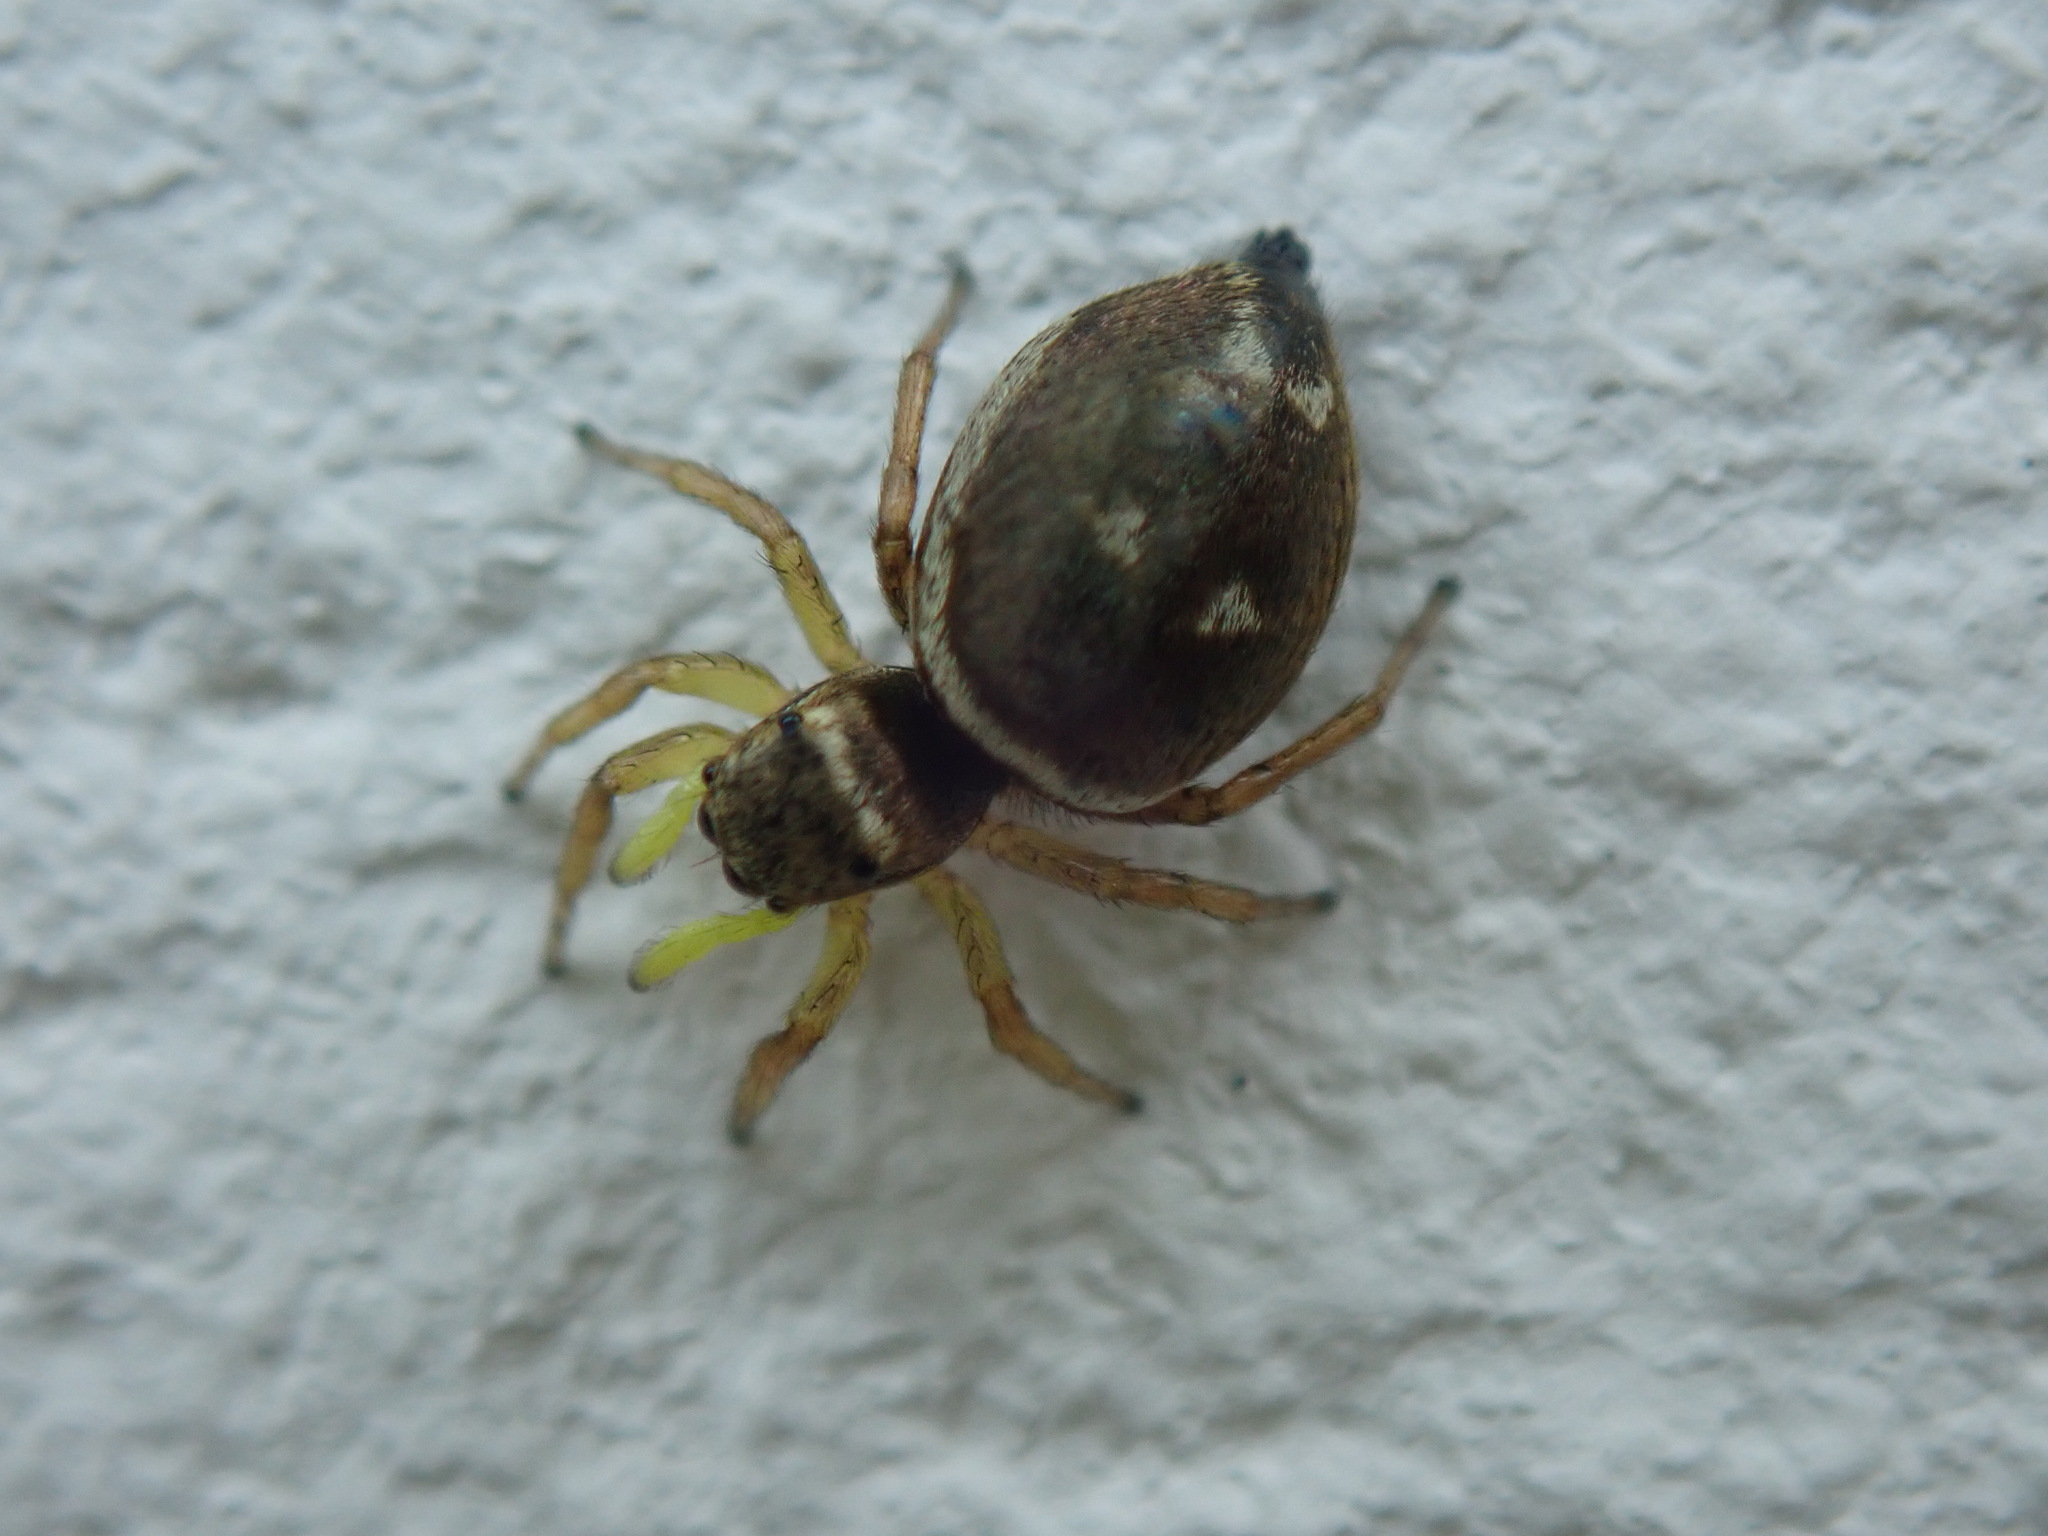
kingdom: Animalia
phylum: Arthropoda
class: Arachnida
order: Araneae
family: Salticidae
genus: Heliophanus
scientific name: Heliophanus cupreus
